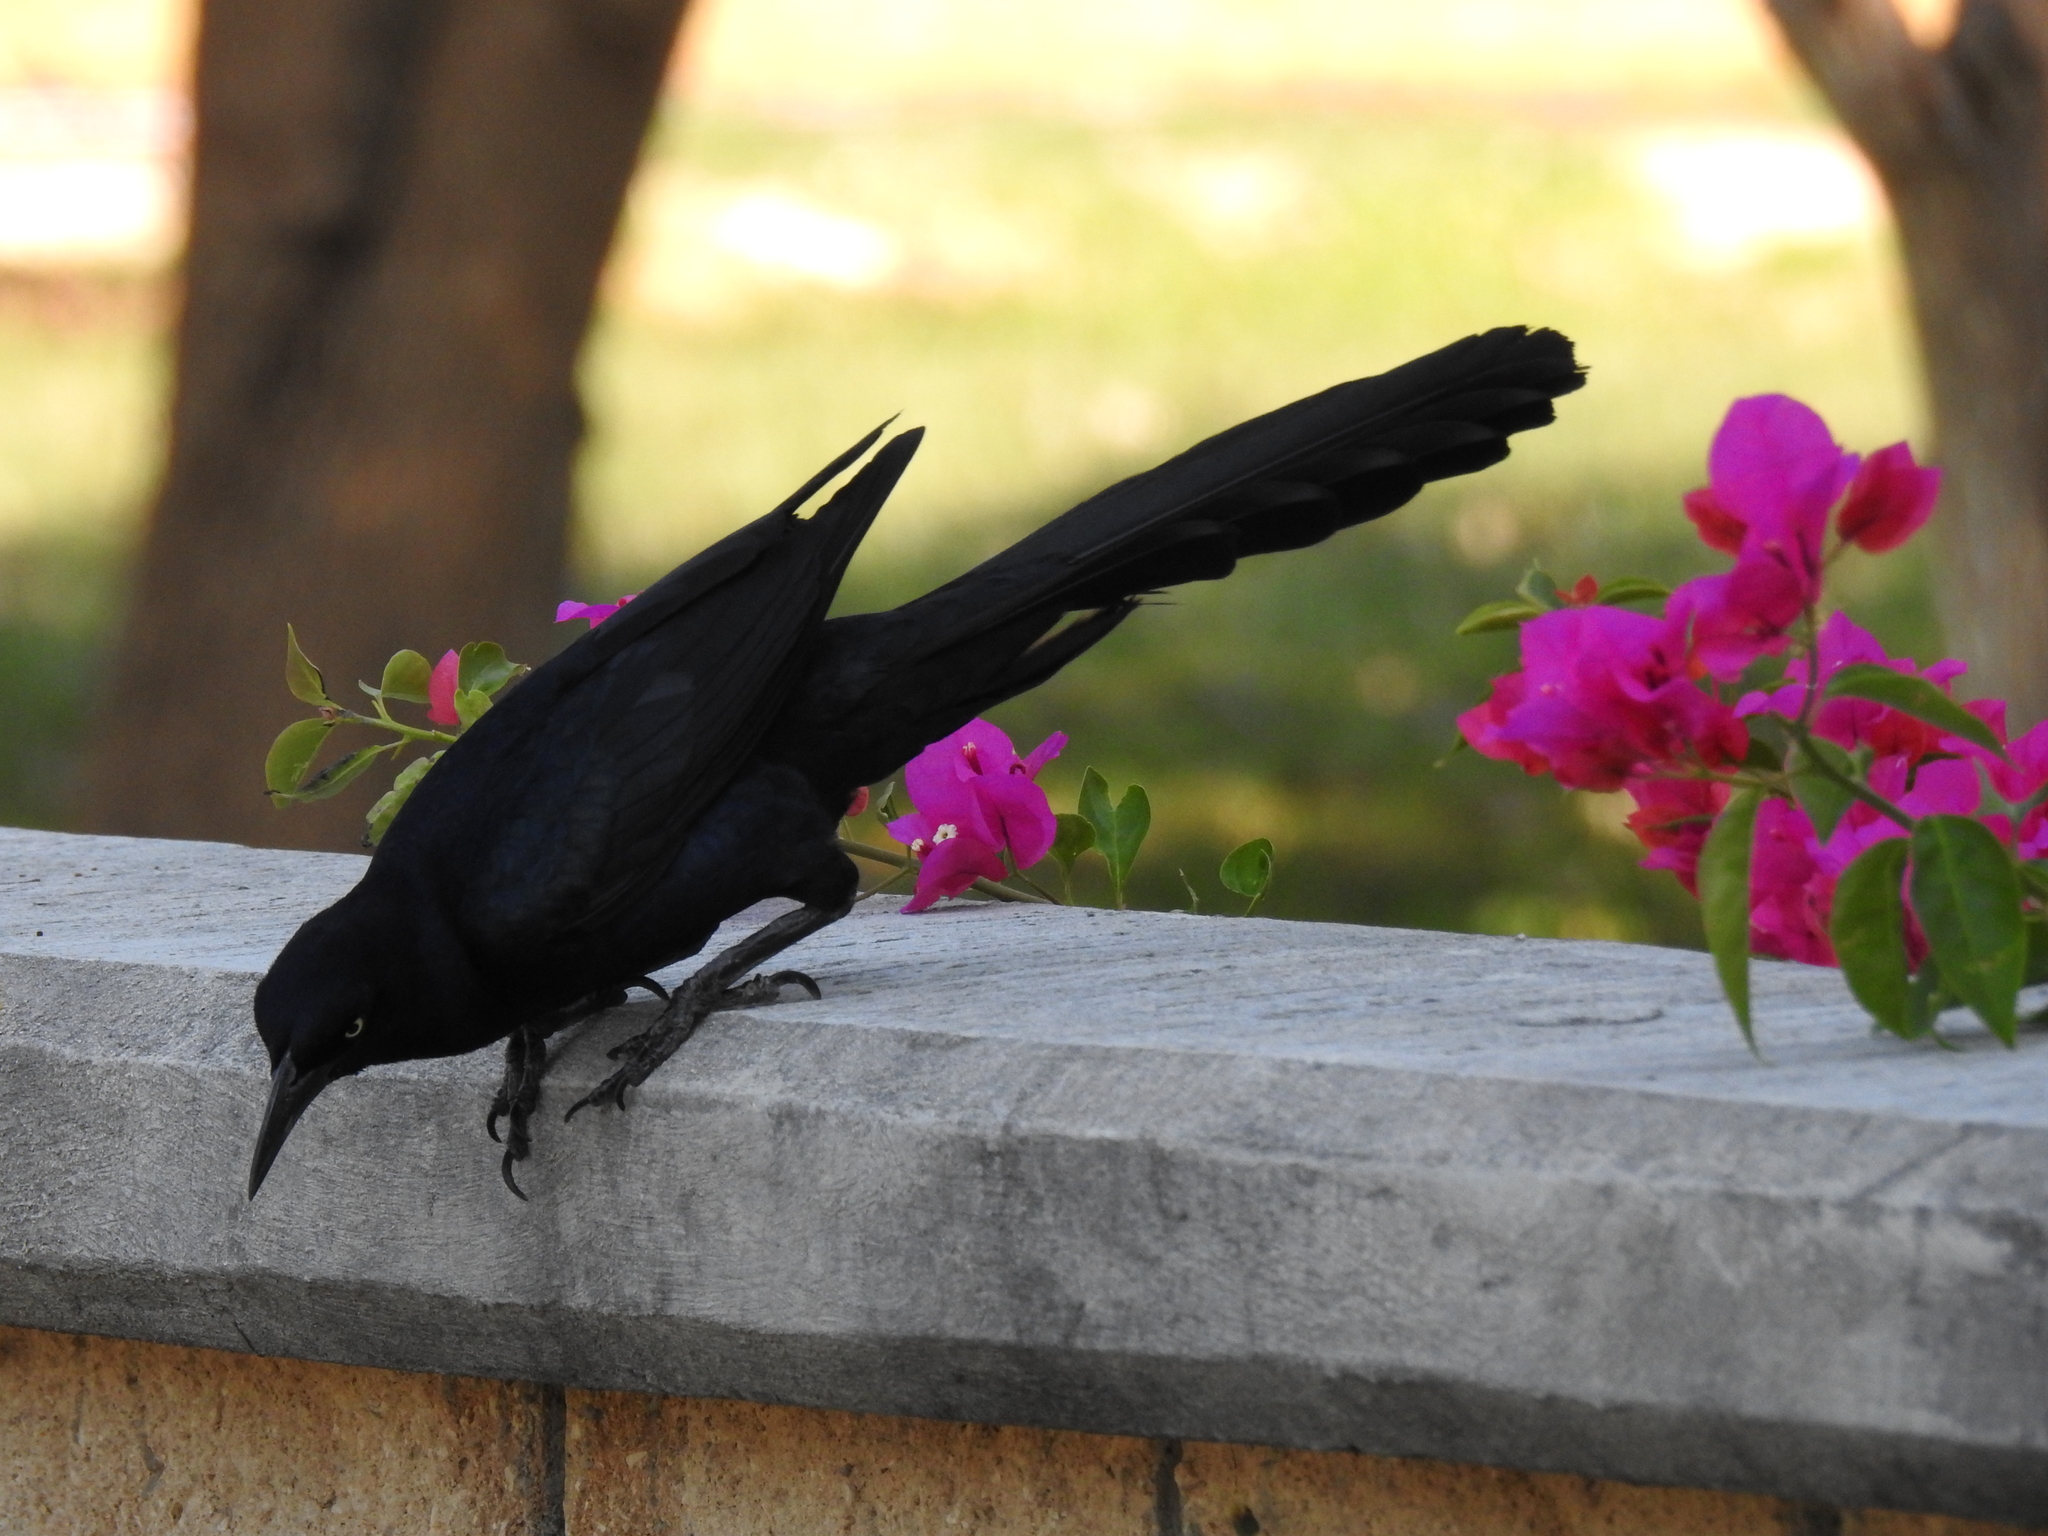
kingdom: Animalia
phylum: Chordata
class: Aves
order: Passeriformes
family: Icteridae
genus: Quiscalus
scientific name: Quiscalus mexicanus
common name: Great-tailed grackle
